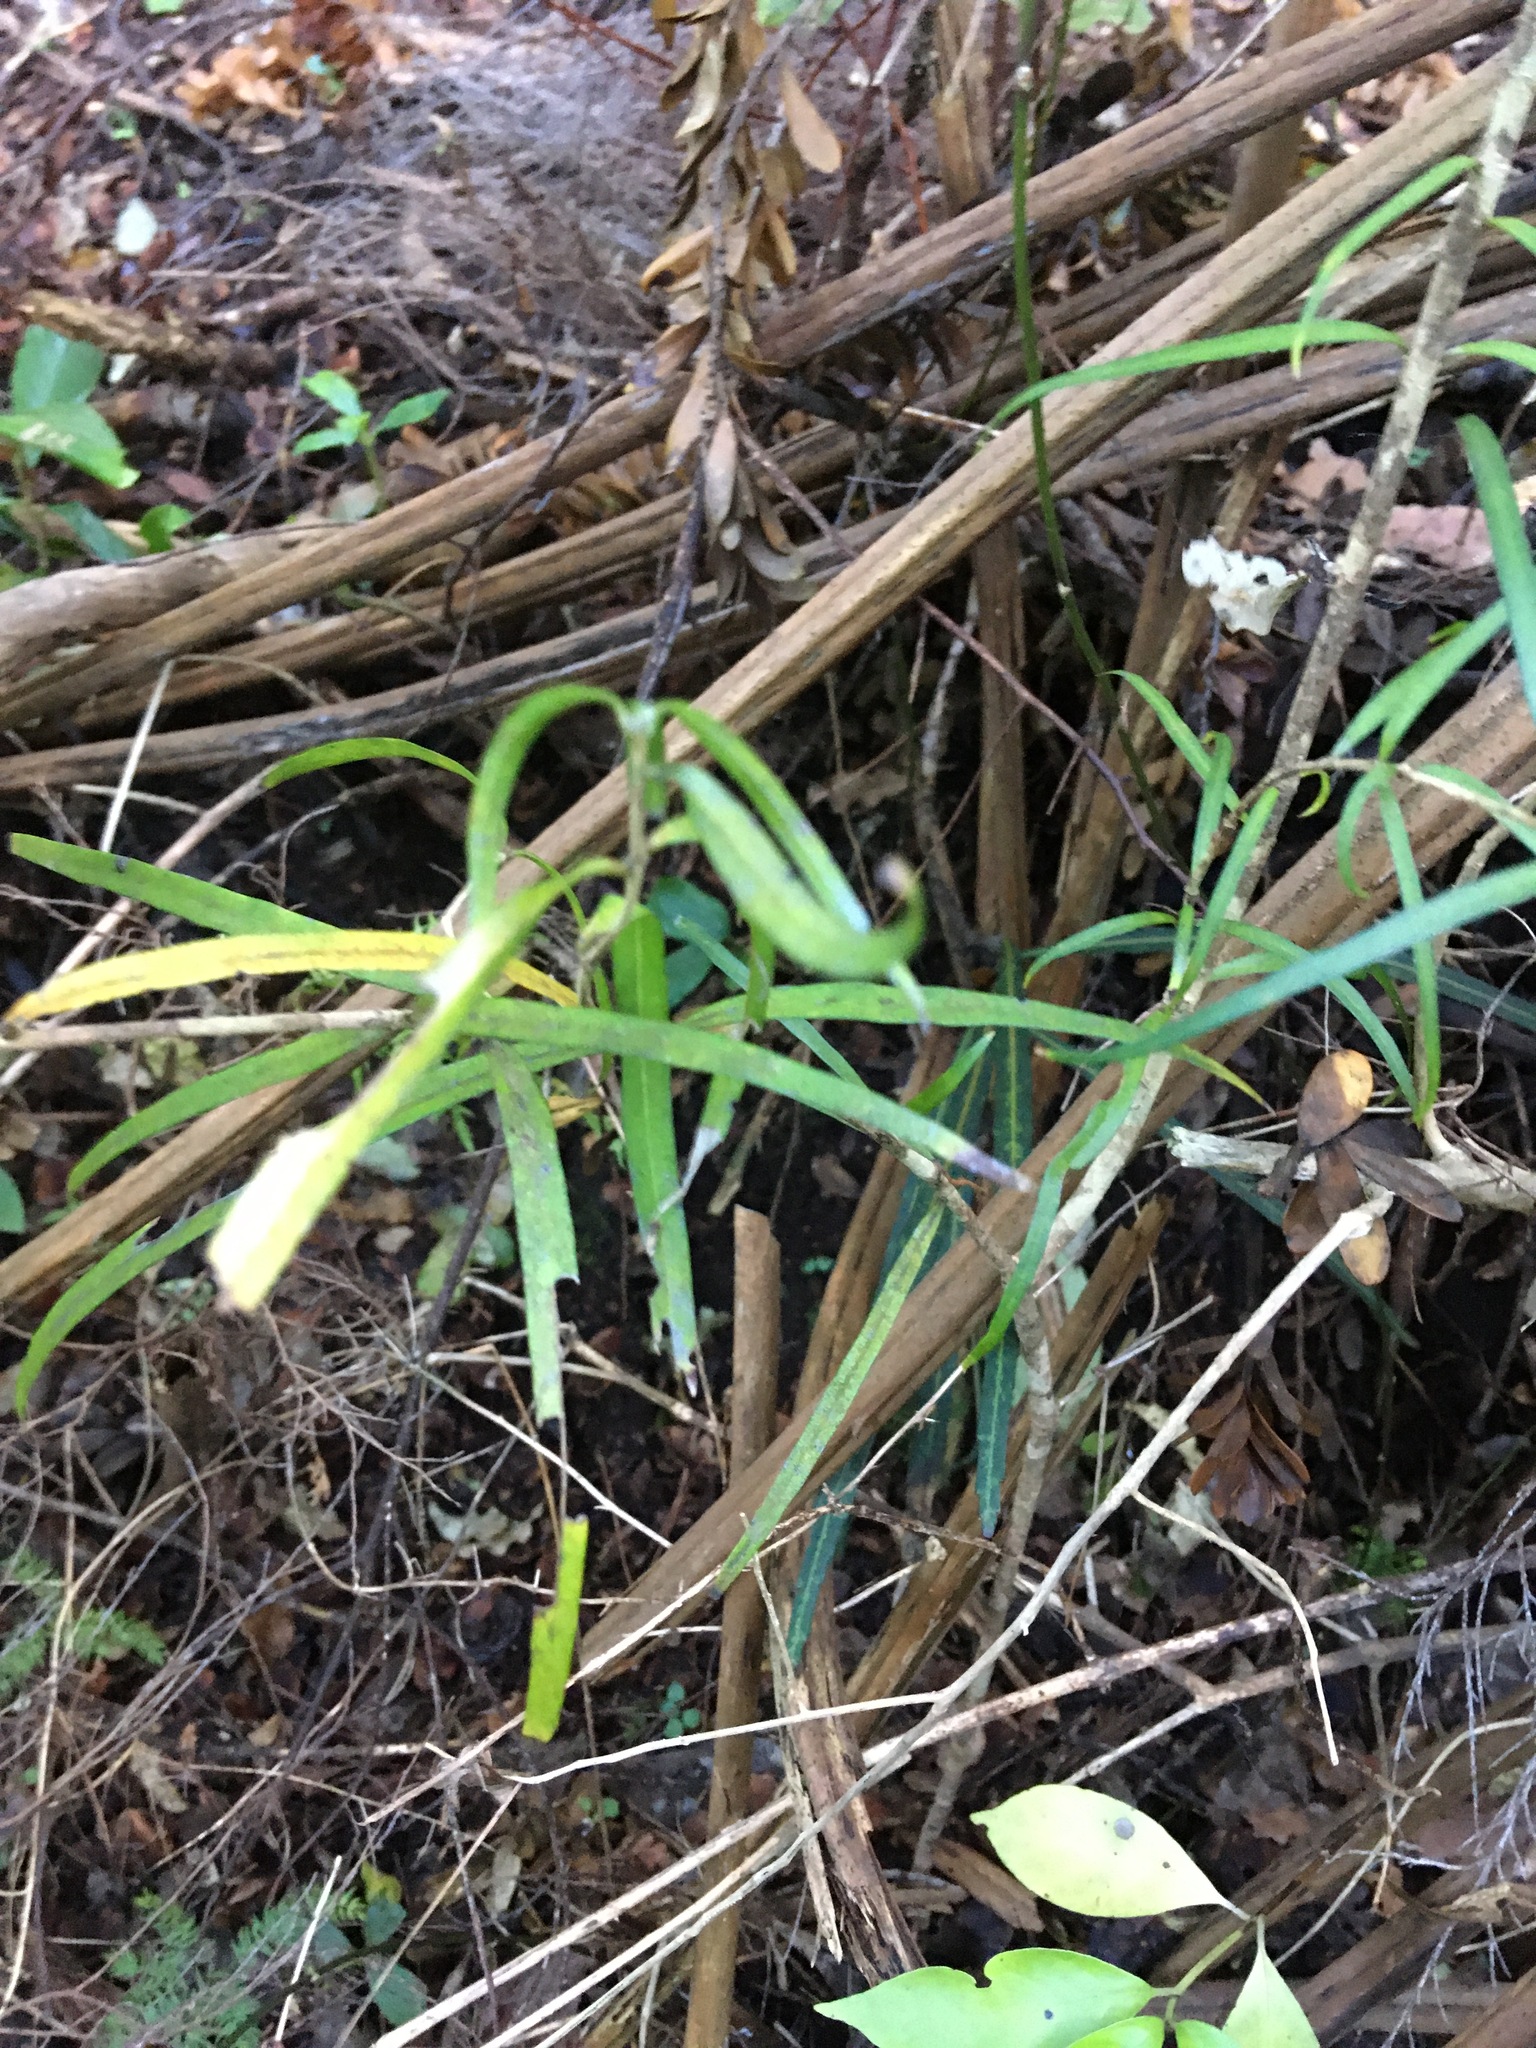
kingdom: Plantae
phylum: Tracheophyta
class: Magnoliopsida
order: Lamiales
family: Oleaceae
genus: Nestegis
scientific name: Nestegis lanceolata
